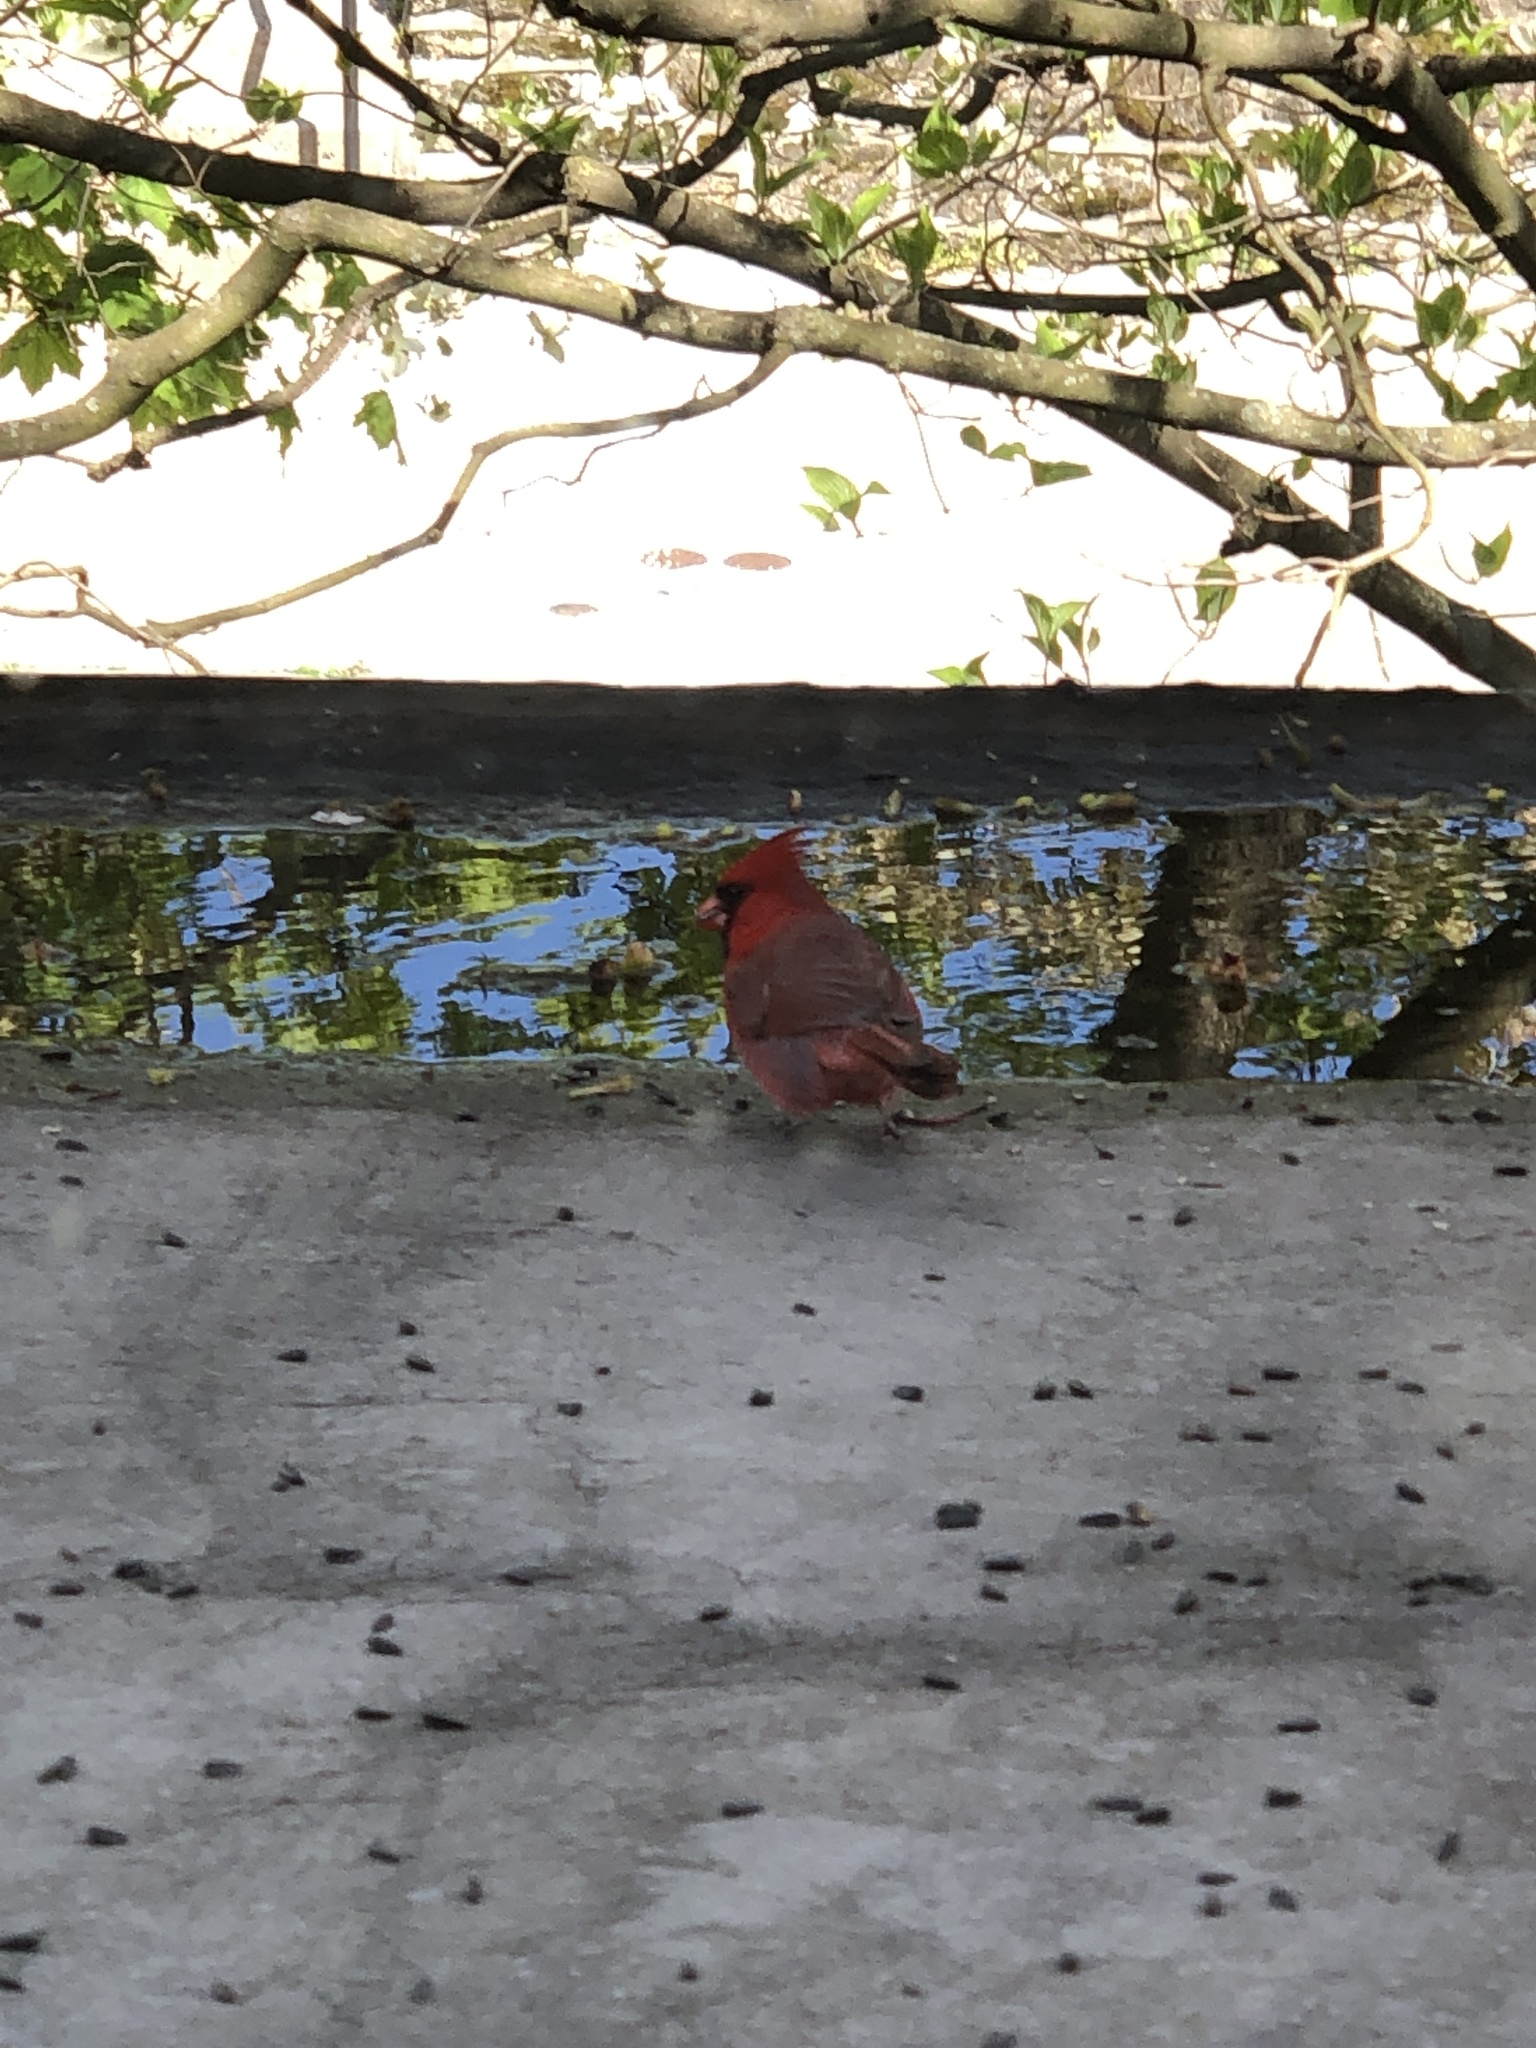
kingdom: Animalia
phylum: Chordata
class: Aves
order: Passeriformes
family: Cardinalidae
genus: Cardinalis
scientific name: Cardinalis cardinalis
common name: Northern cardinal
